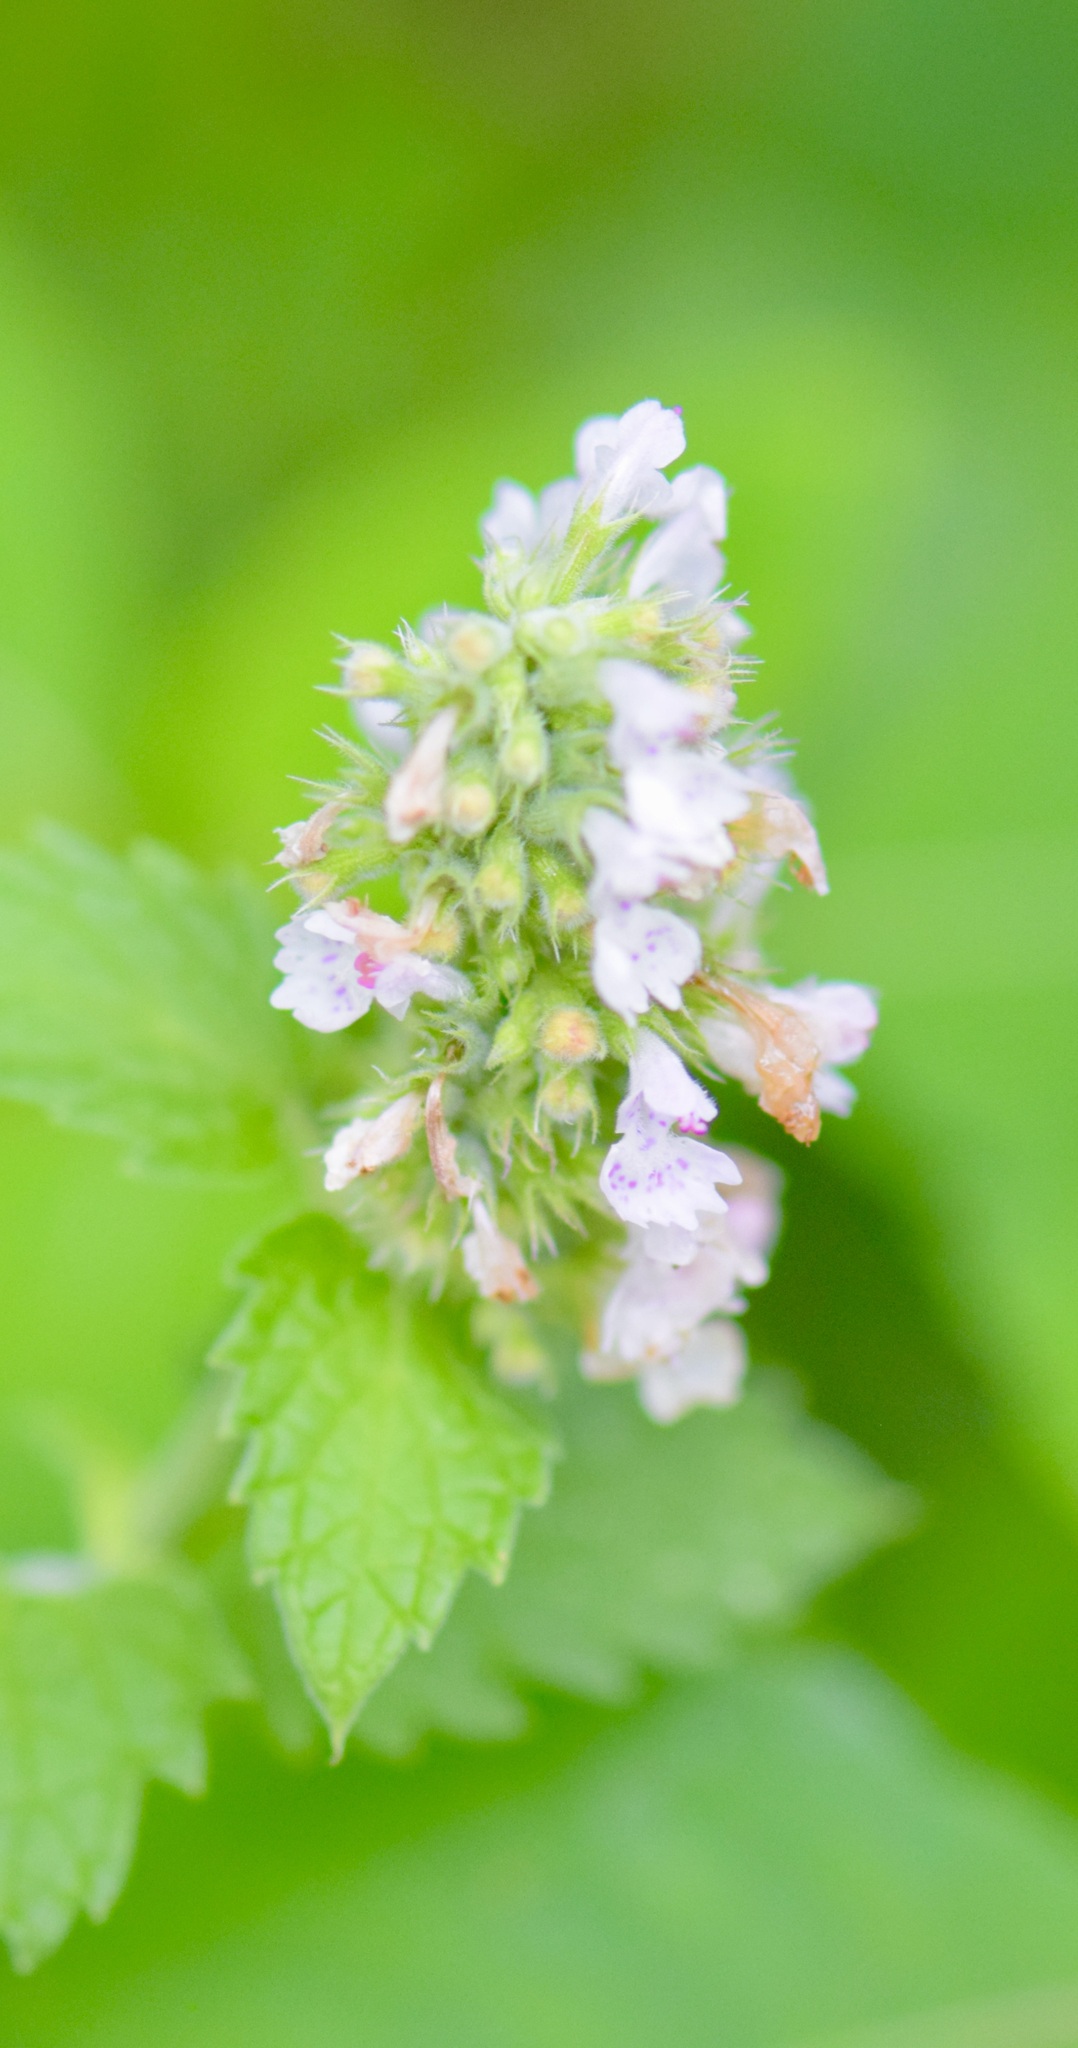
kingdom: Plantae
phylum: Tracheophyta
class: Magnoliopsida
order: Lamiales
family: Lamiaceae
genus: Nepeta
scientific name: Nepeta cataria
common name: Catnip
